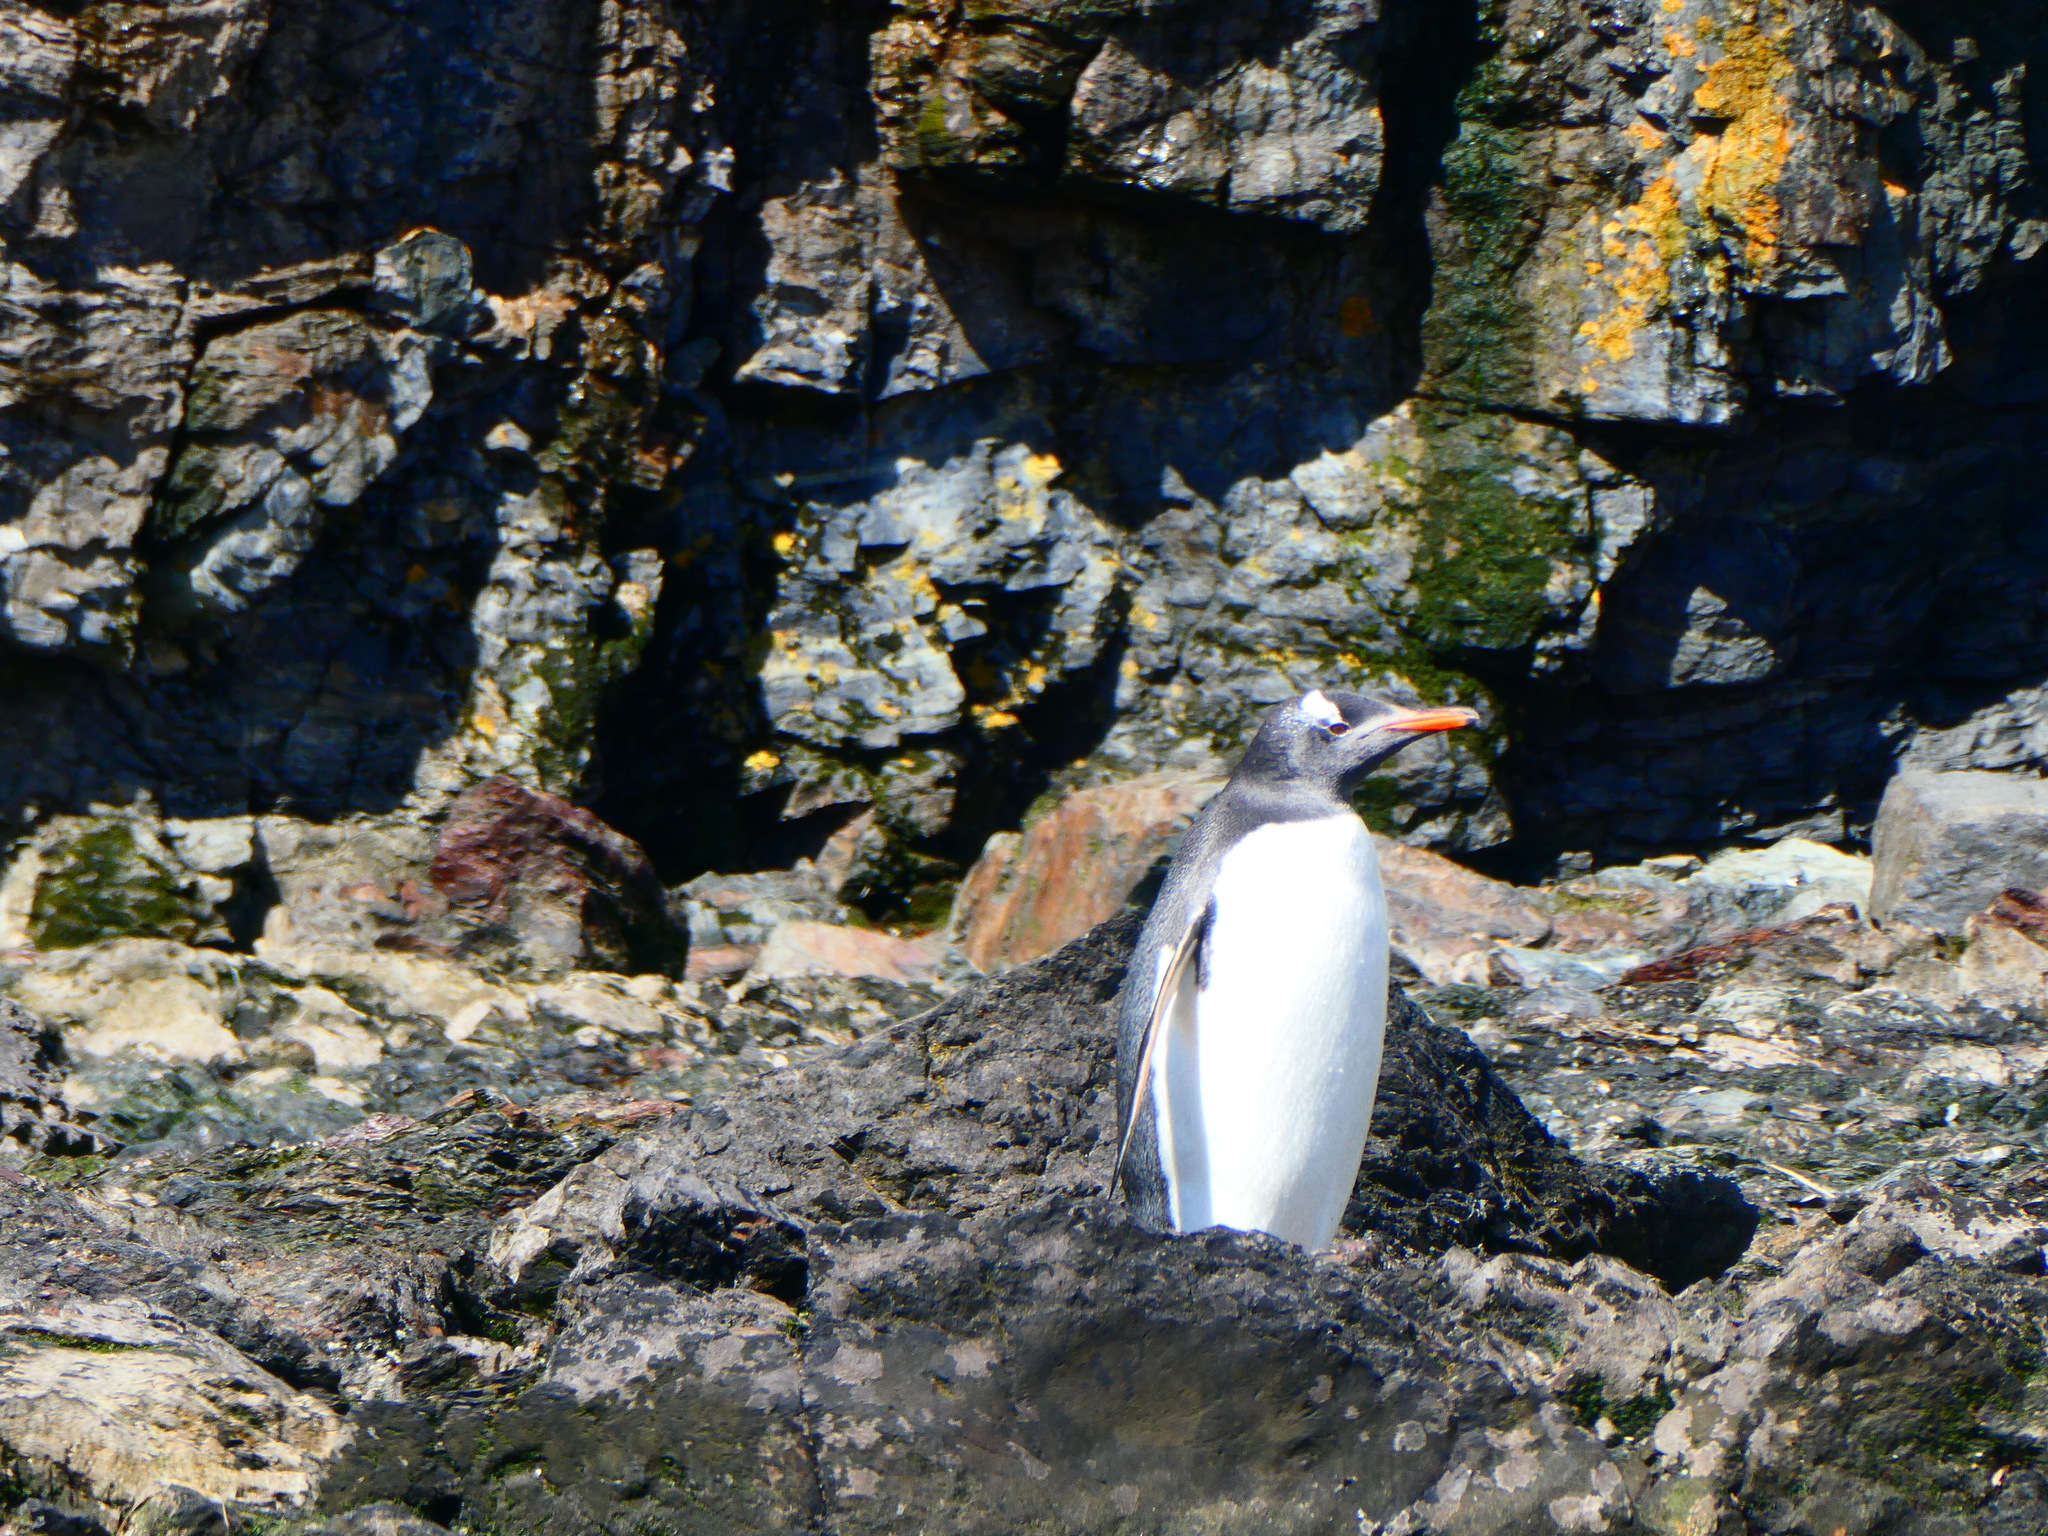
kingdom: Animalia
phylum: Chordata
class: Aves
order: Sphenisciformes
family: Spheniscidae
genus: Pygoscelis
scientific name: Pygoscelis papua
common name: Gentoo penguin
